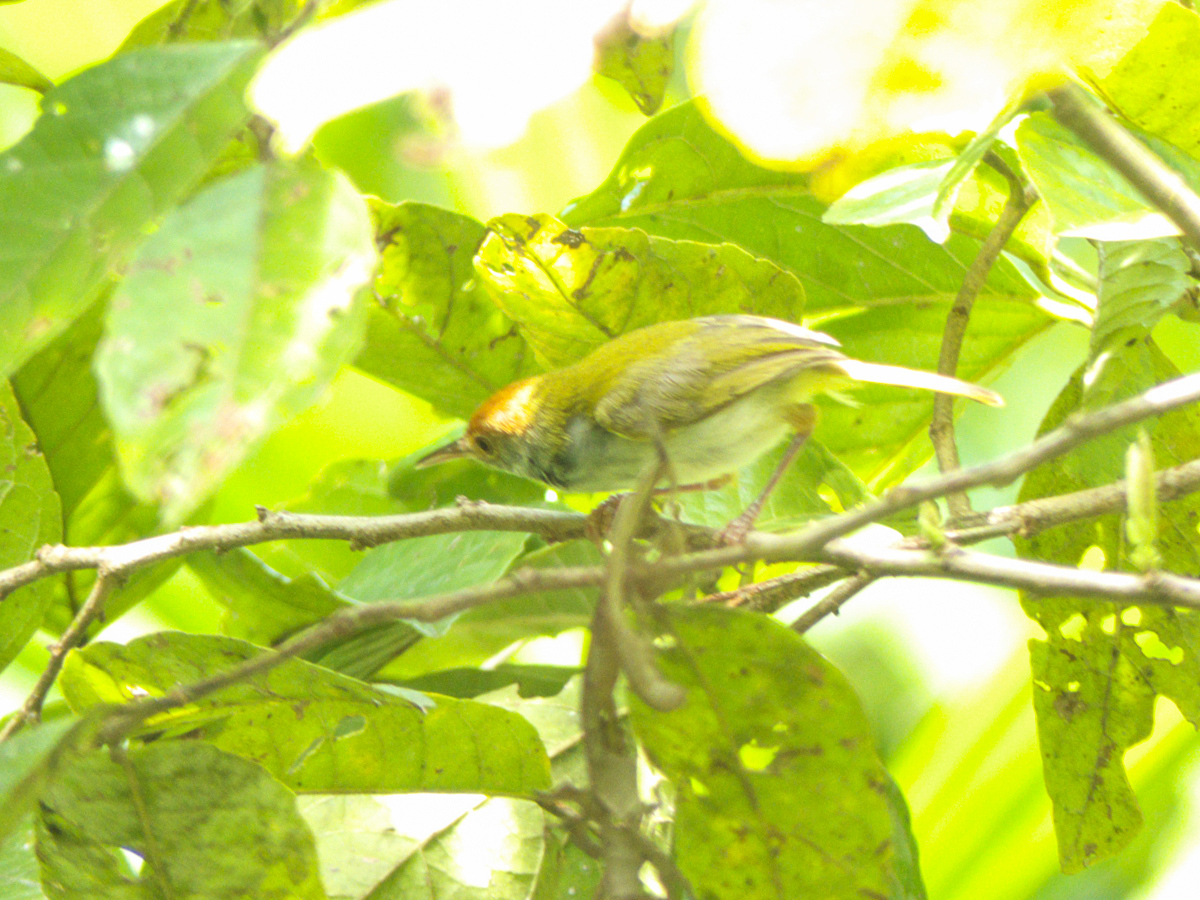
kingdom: Animalia
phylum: Chordata
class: Aves
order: Passeriformes
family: Cisticolidae
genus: Orthotomus
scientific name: Orthotomus sutorius
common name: Common tailorbird
